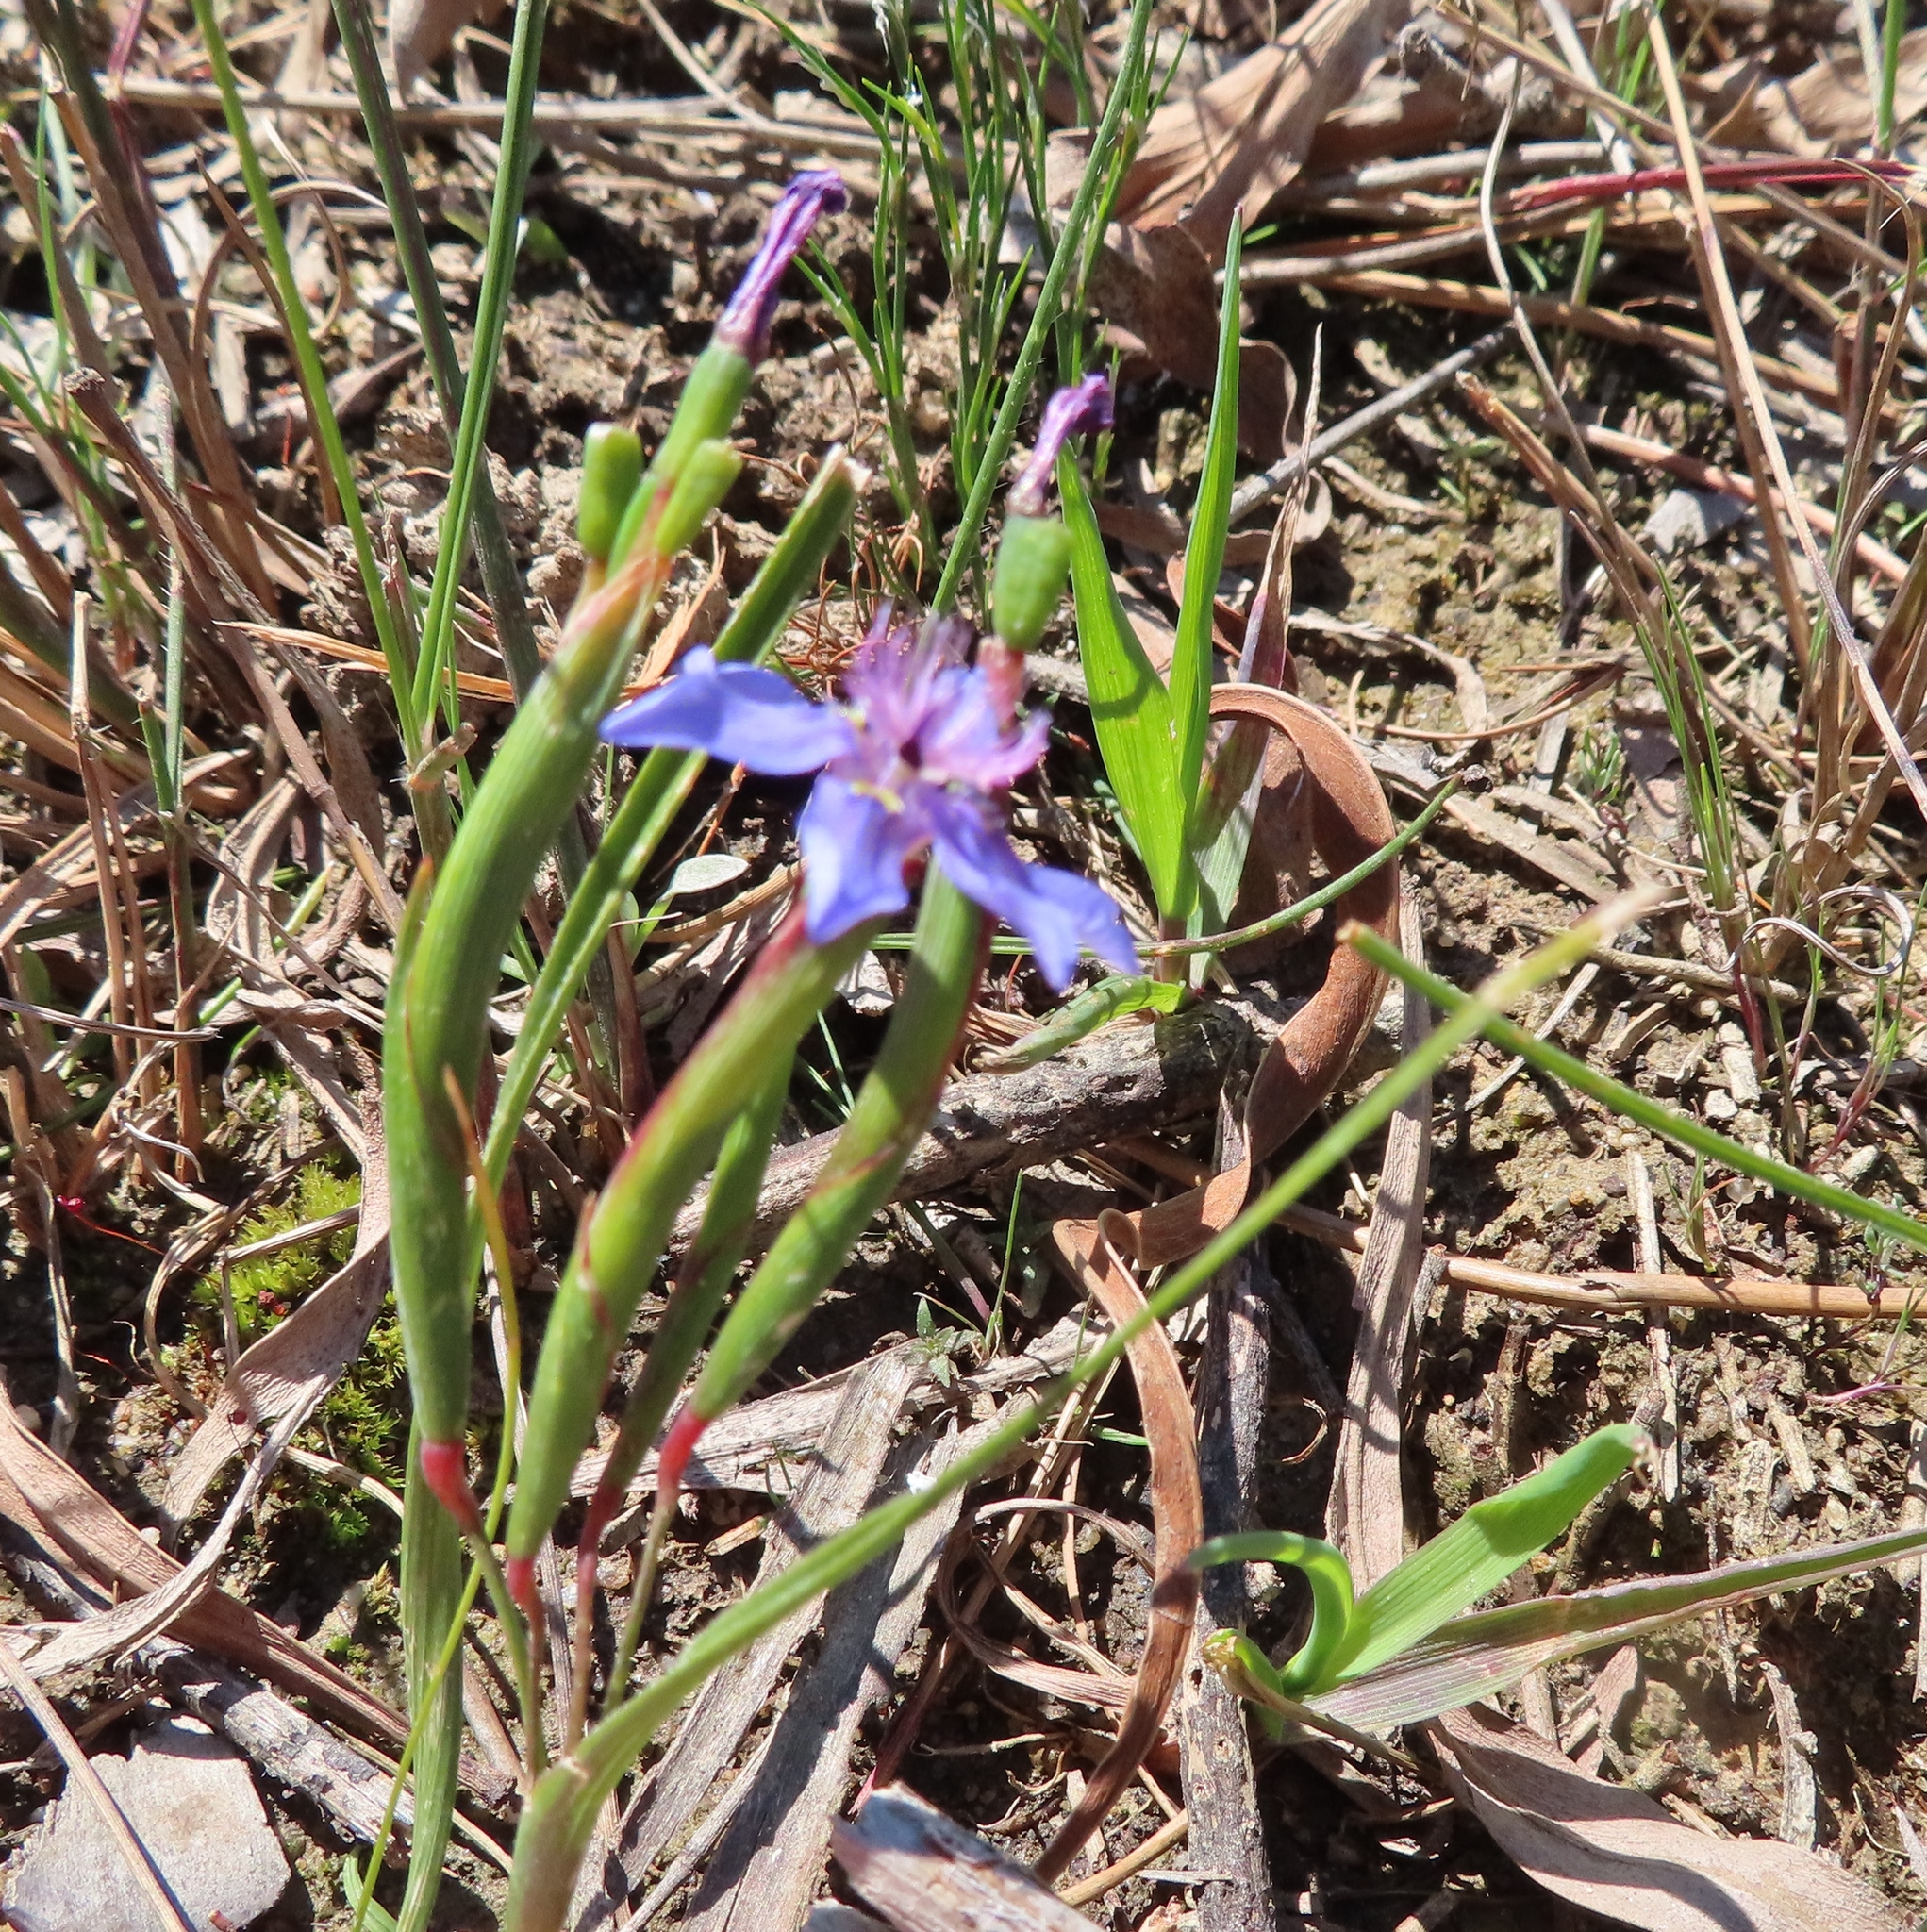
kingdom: Plantae
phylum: Tracheophyta
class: Liliopsida
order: Asparagales
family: Iridaceae
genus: Moraea
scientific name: Moraea lugubris
